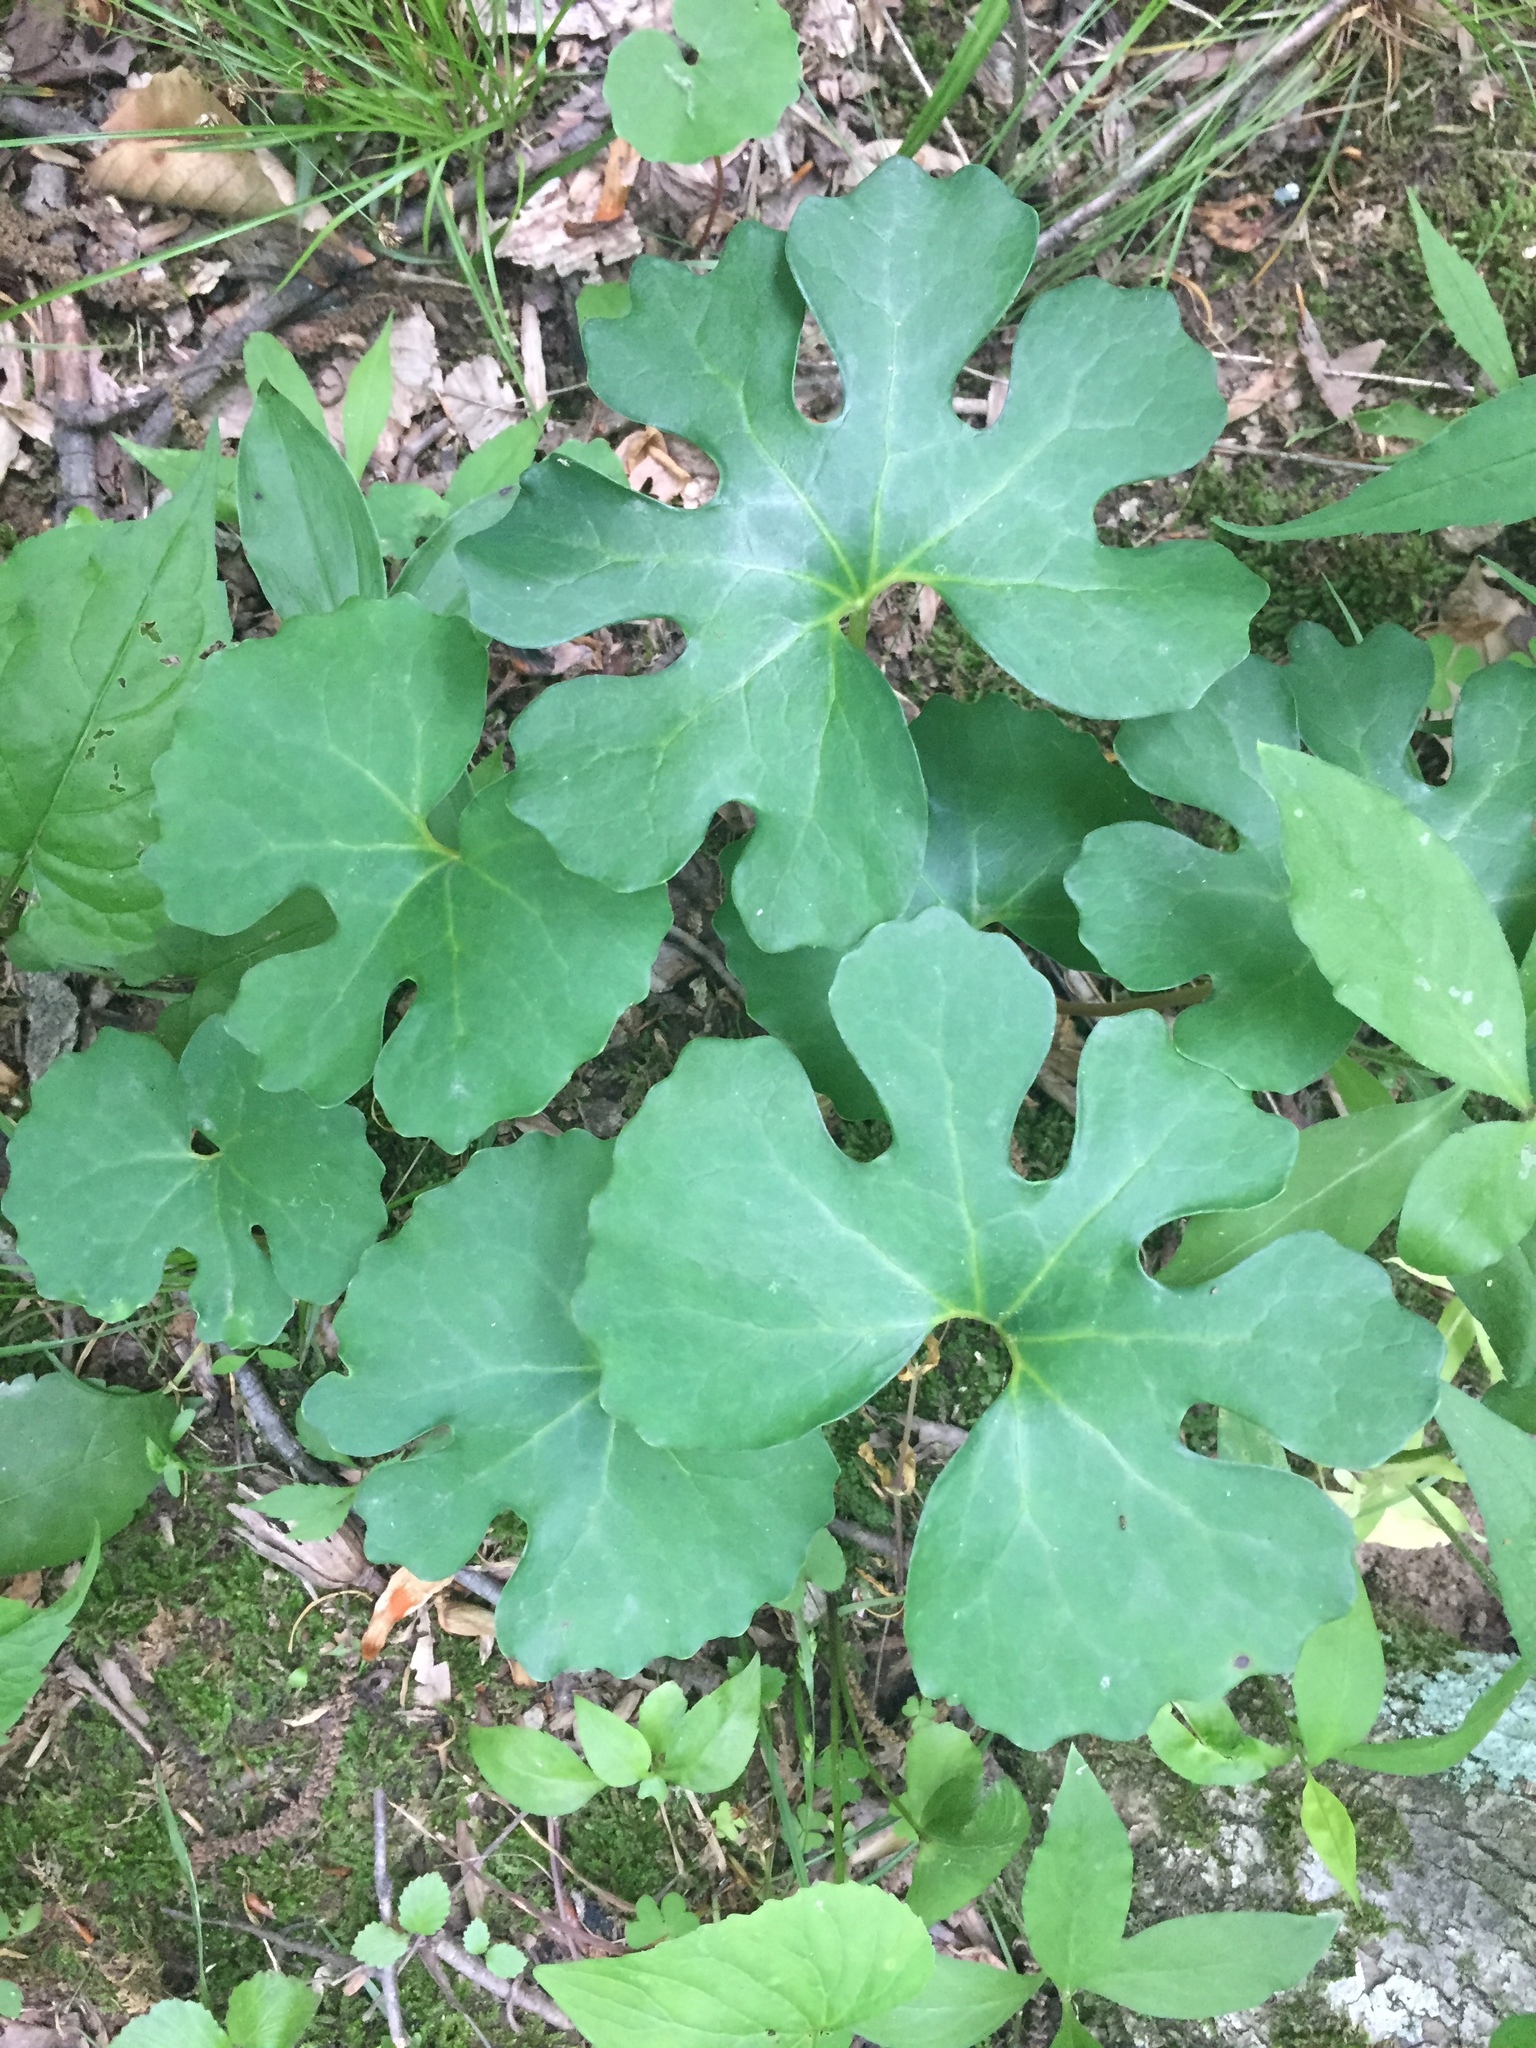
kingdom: Plantae
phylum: Tracheophyta
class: Magnoliopsida
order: Ranunculales
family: Papaveraceae
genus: Sanguinaria
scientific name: Sanguinaria canadensis
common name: Bloodroot
